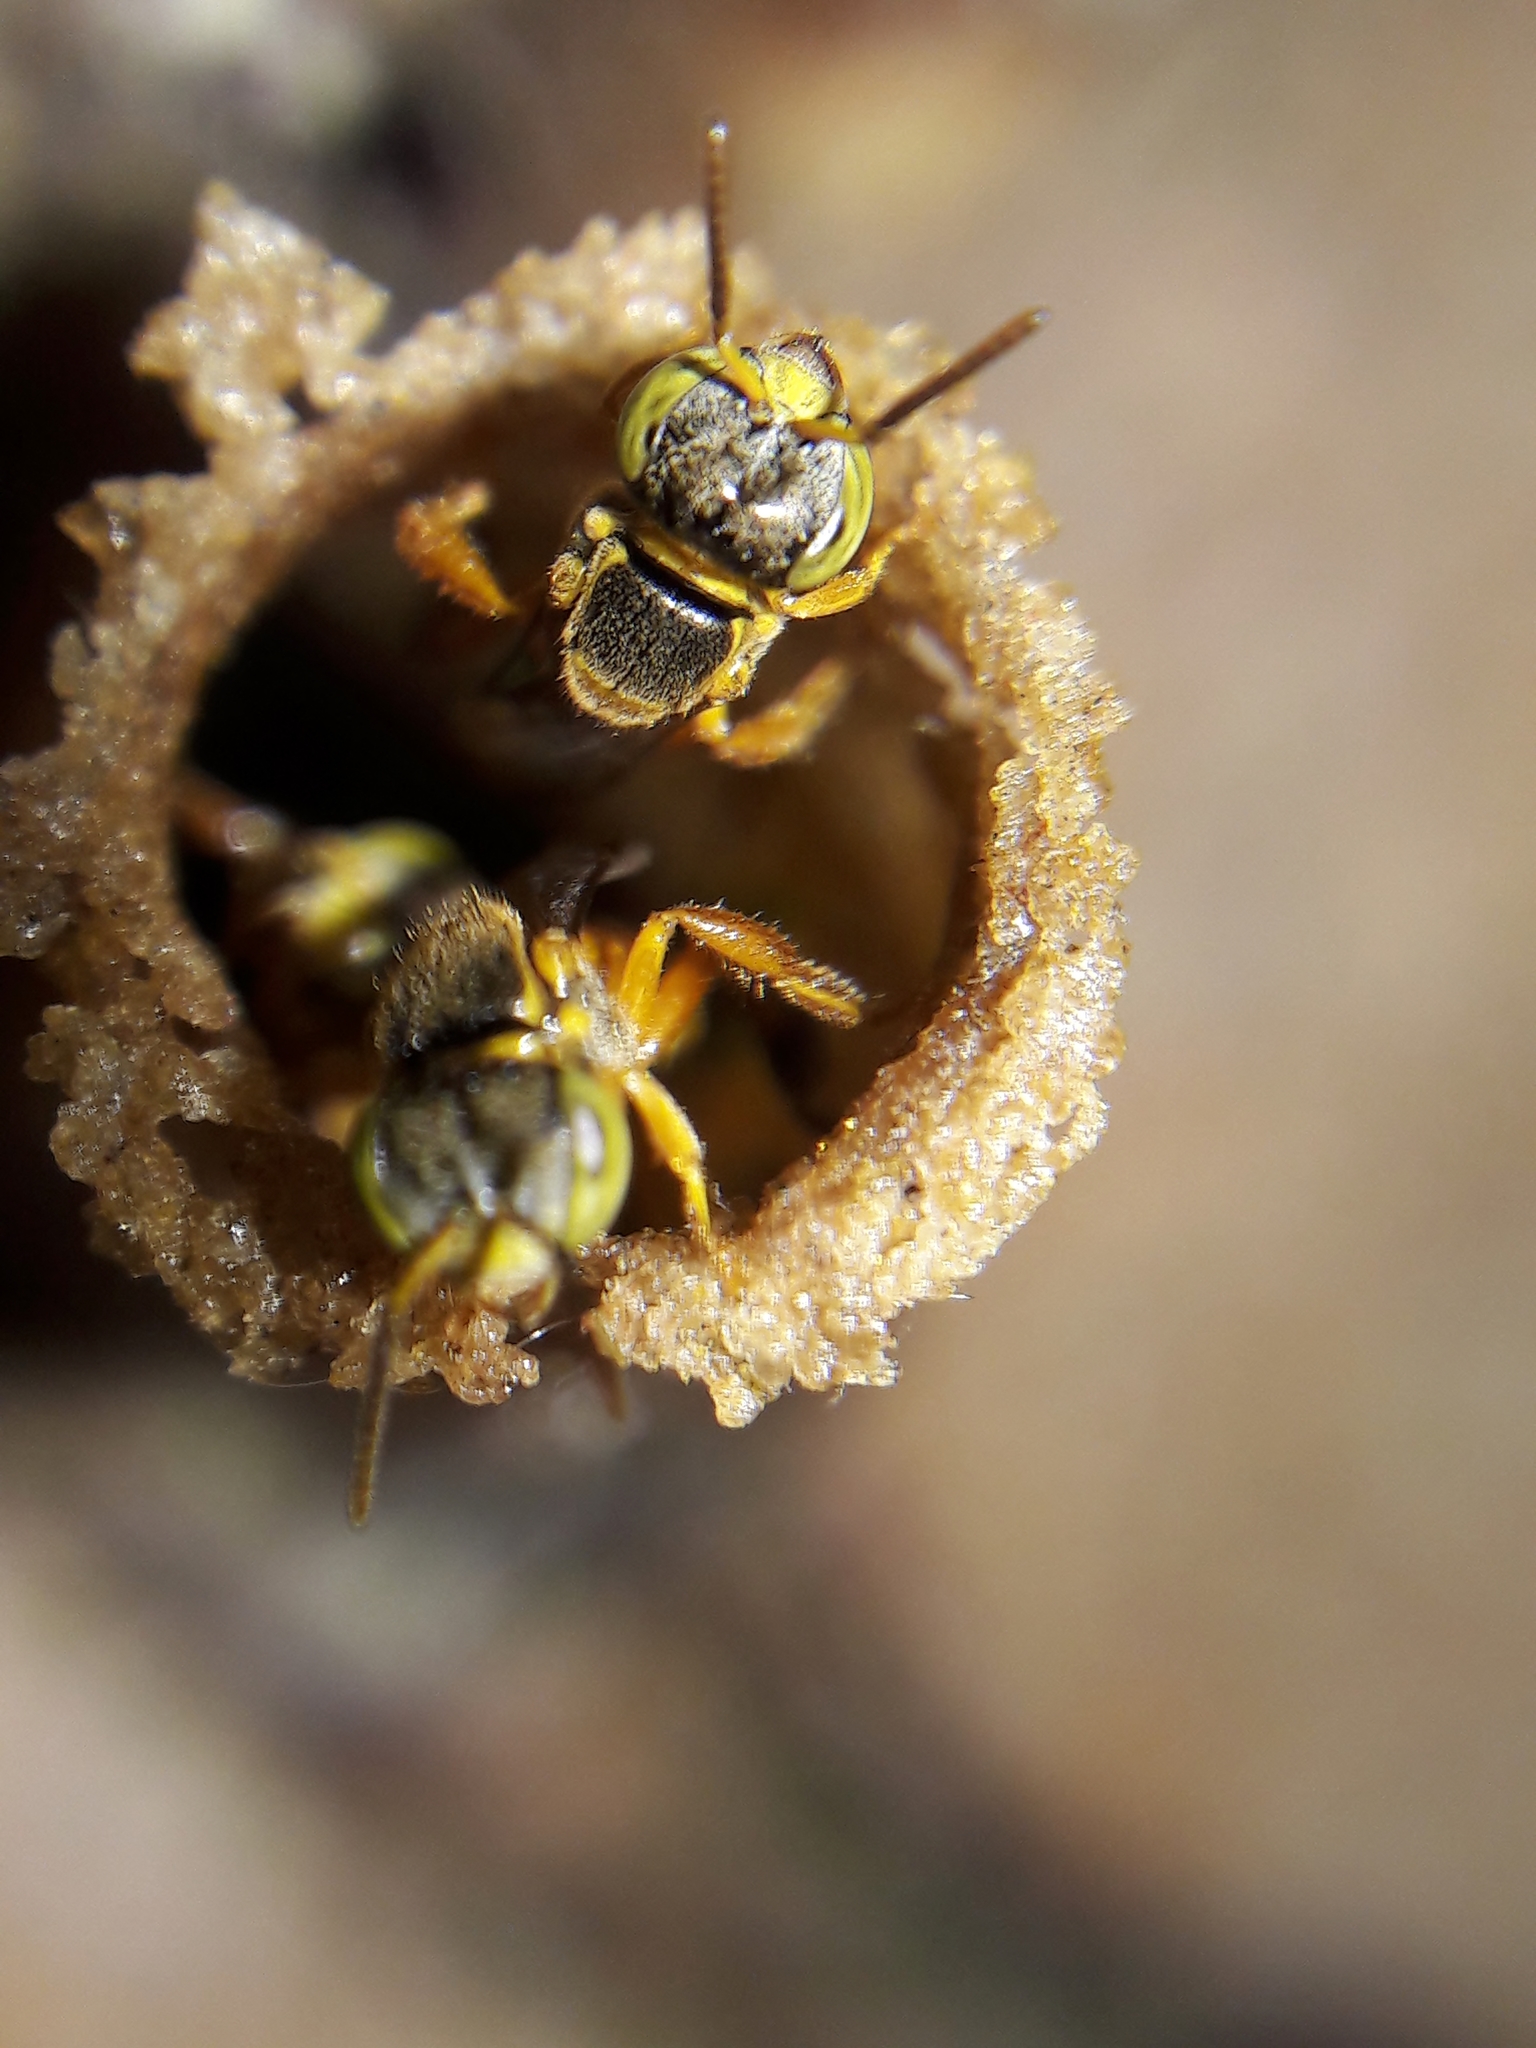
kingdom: Animalia
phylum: Arthropoda
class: Insecta
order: Hymenoptera
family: Apidae
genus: Tetragonisca
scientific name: Tetragonisca angustula
